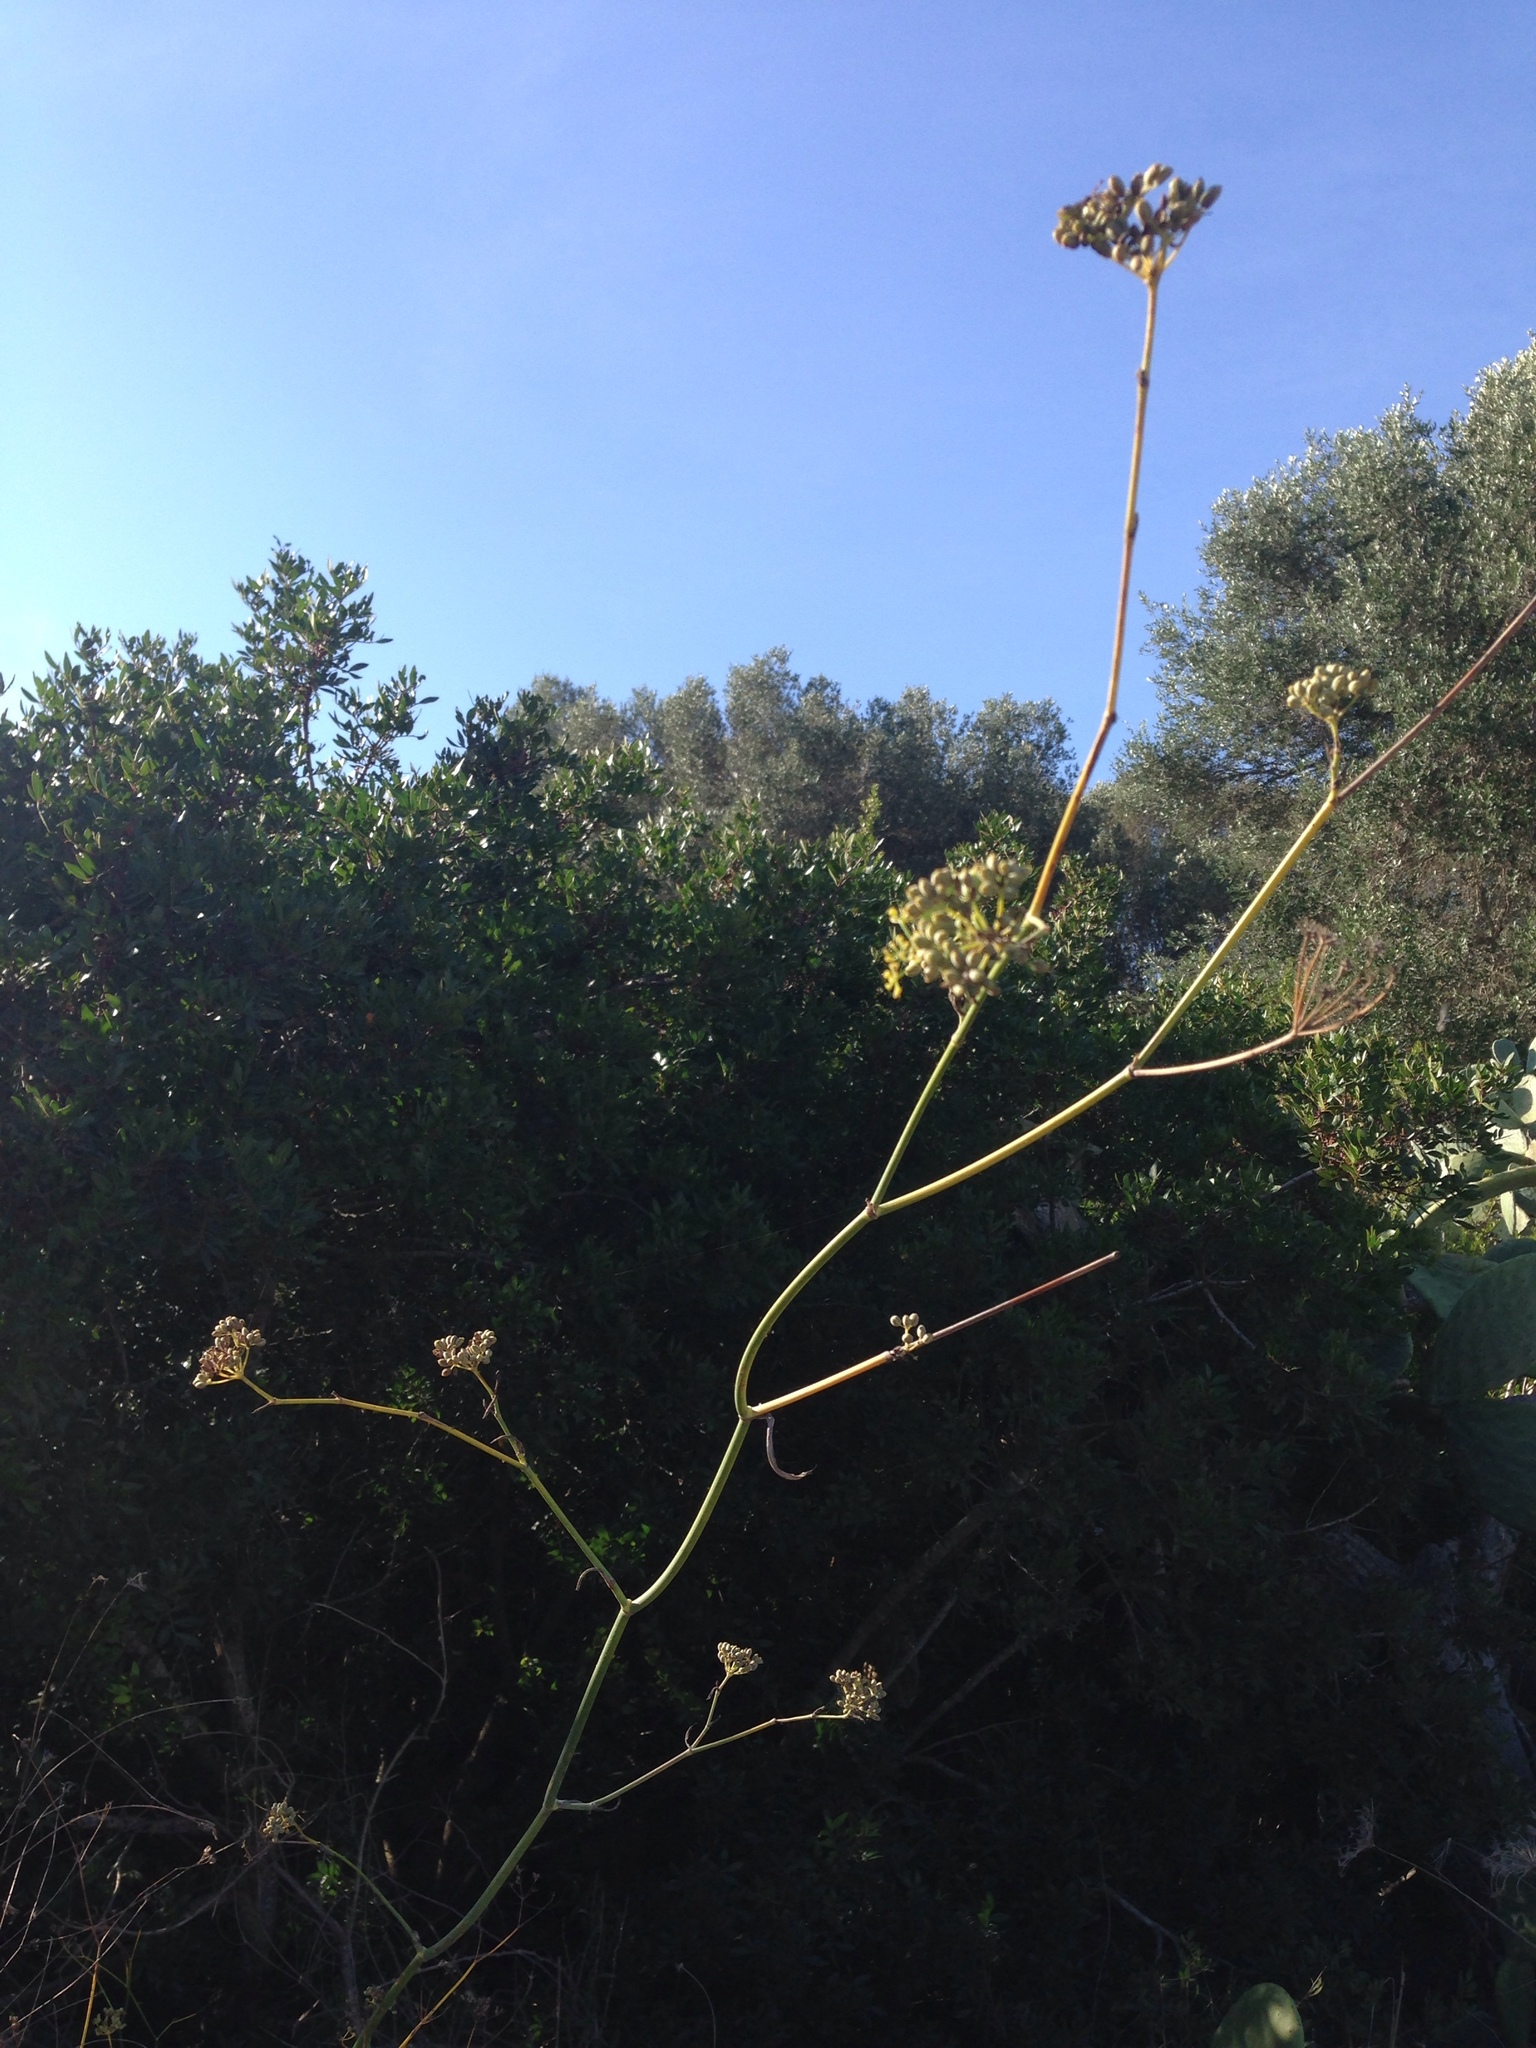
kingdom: Plantae
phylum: Tracheophyta
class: Magnoliopsida
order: Apiales
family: Apiaceae
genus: Foeniculum
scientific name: Foeniculum vulgare
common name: Fennel
